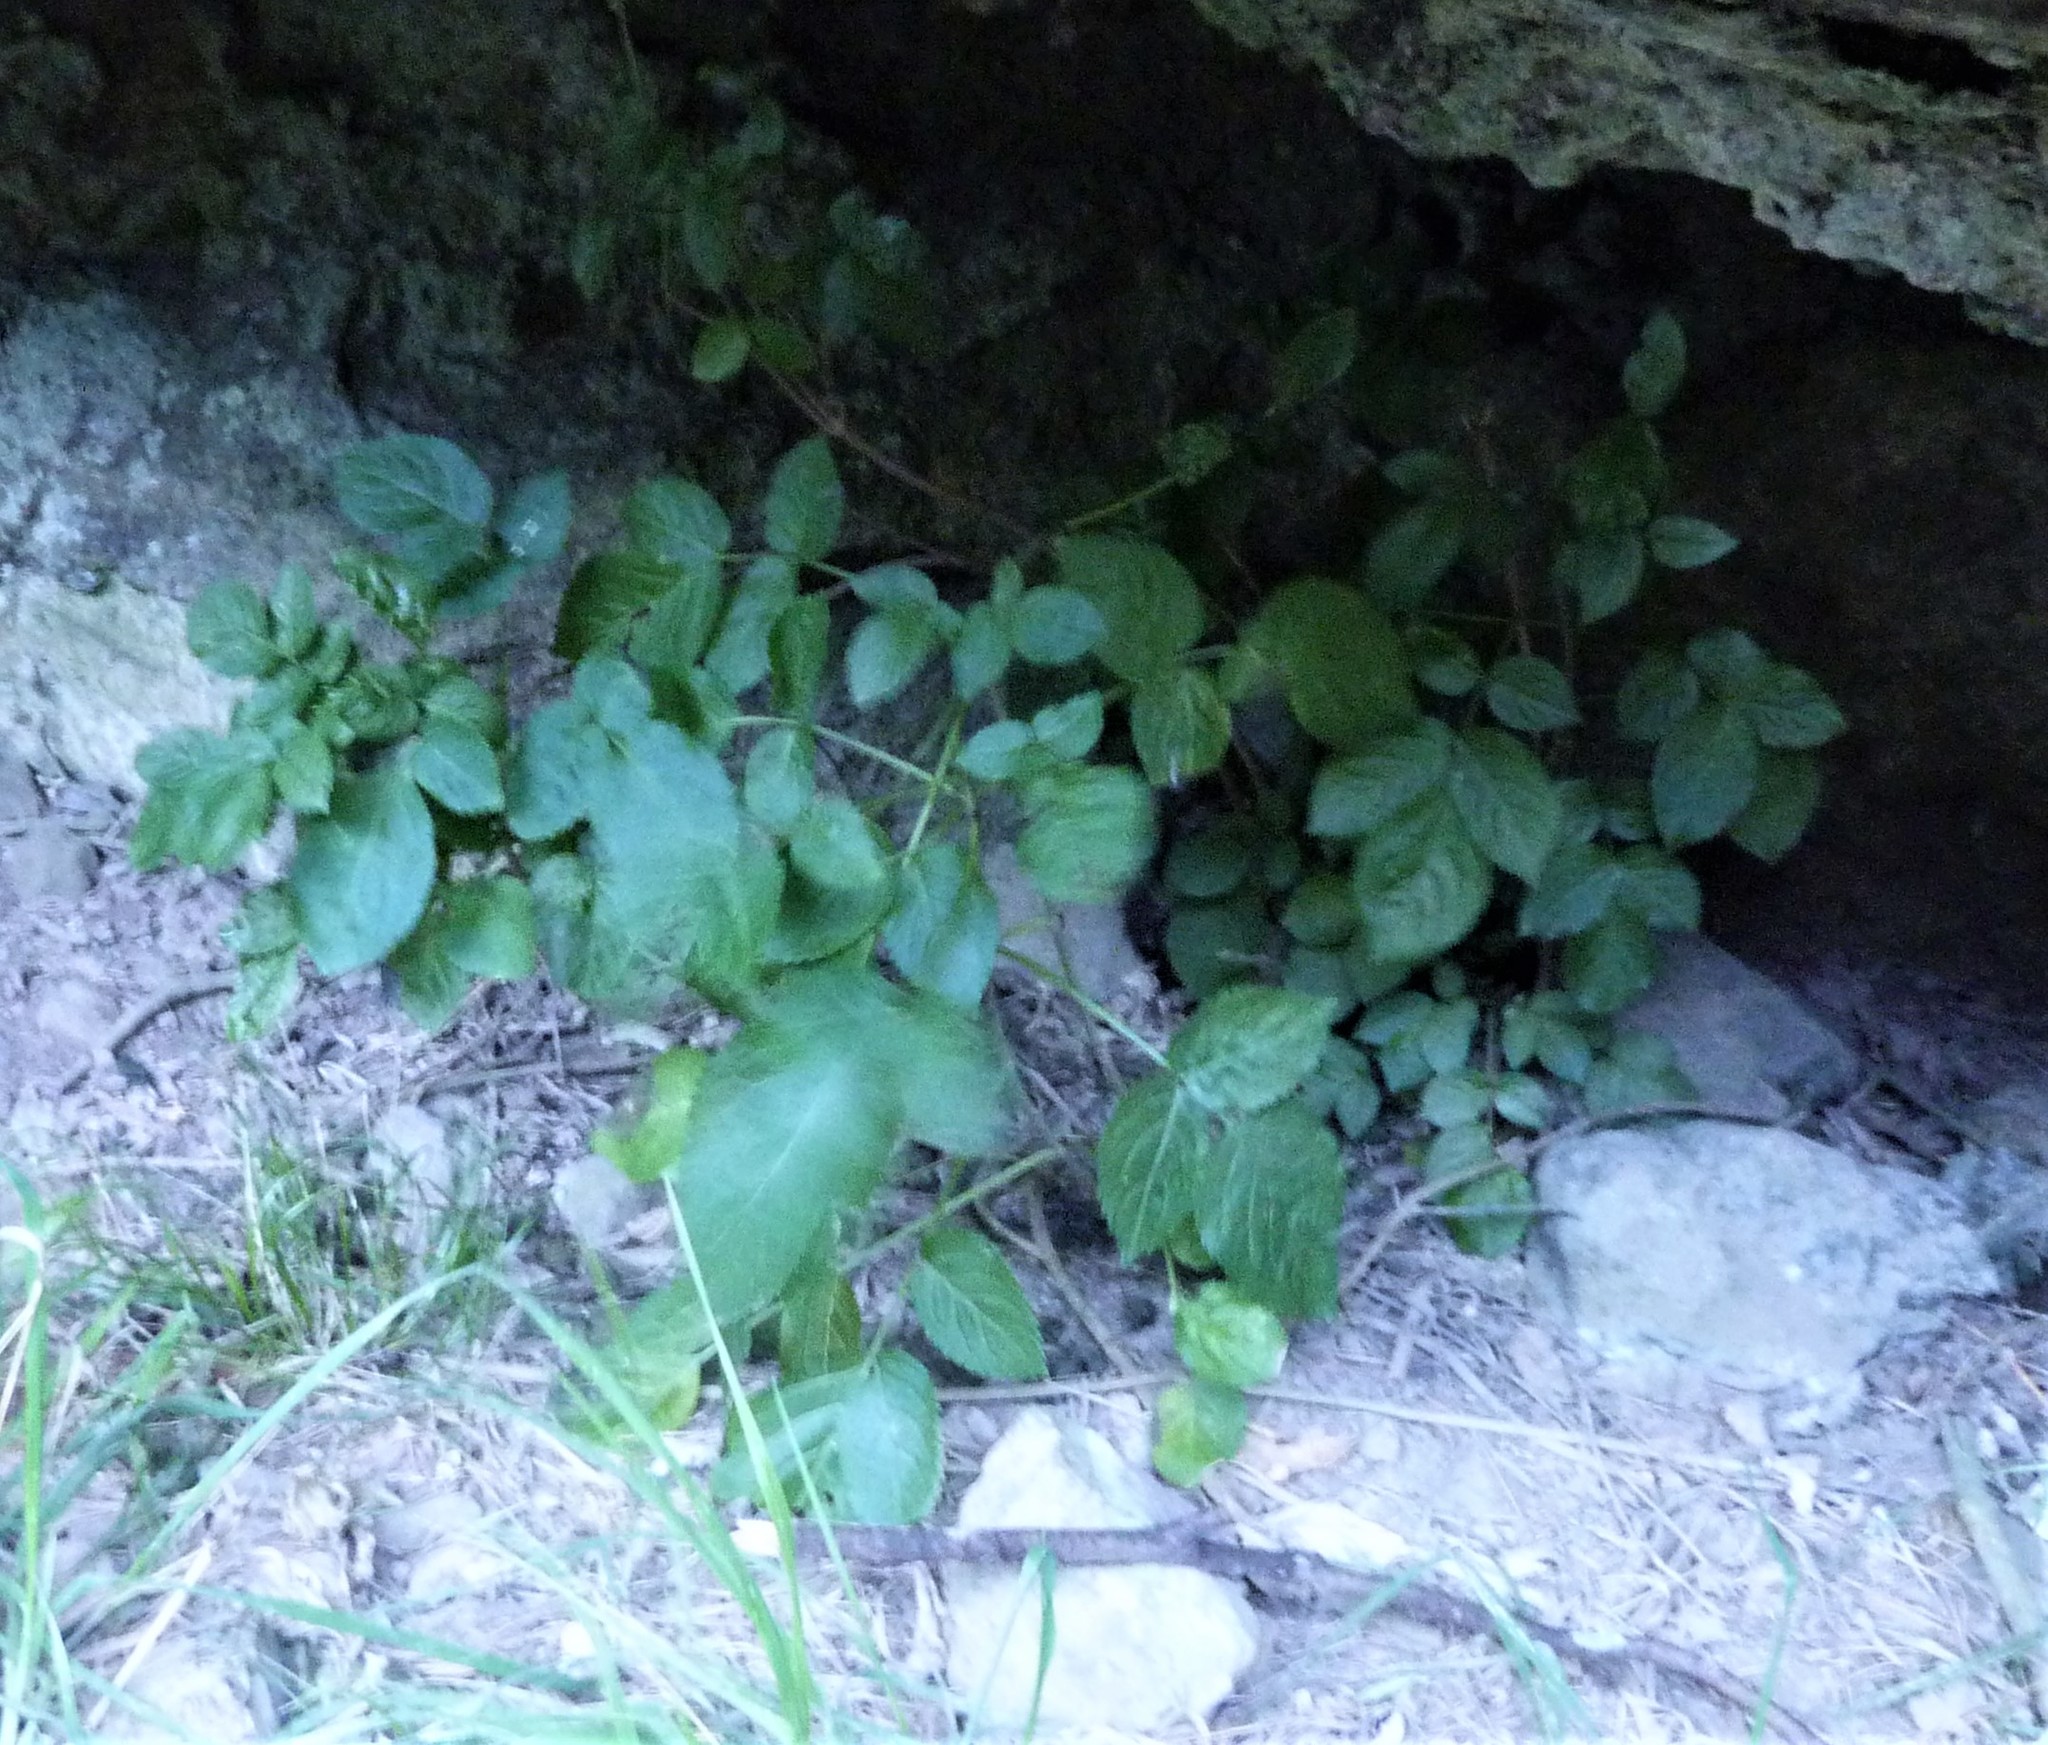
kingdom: Plantae
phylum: Tracheophyta
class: Magnoliopsida
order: Dipsacales
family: Viburnaceae
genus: Sambucus
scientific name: Sambucus nigra
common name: Elder
